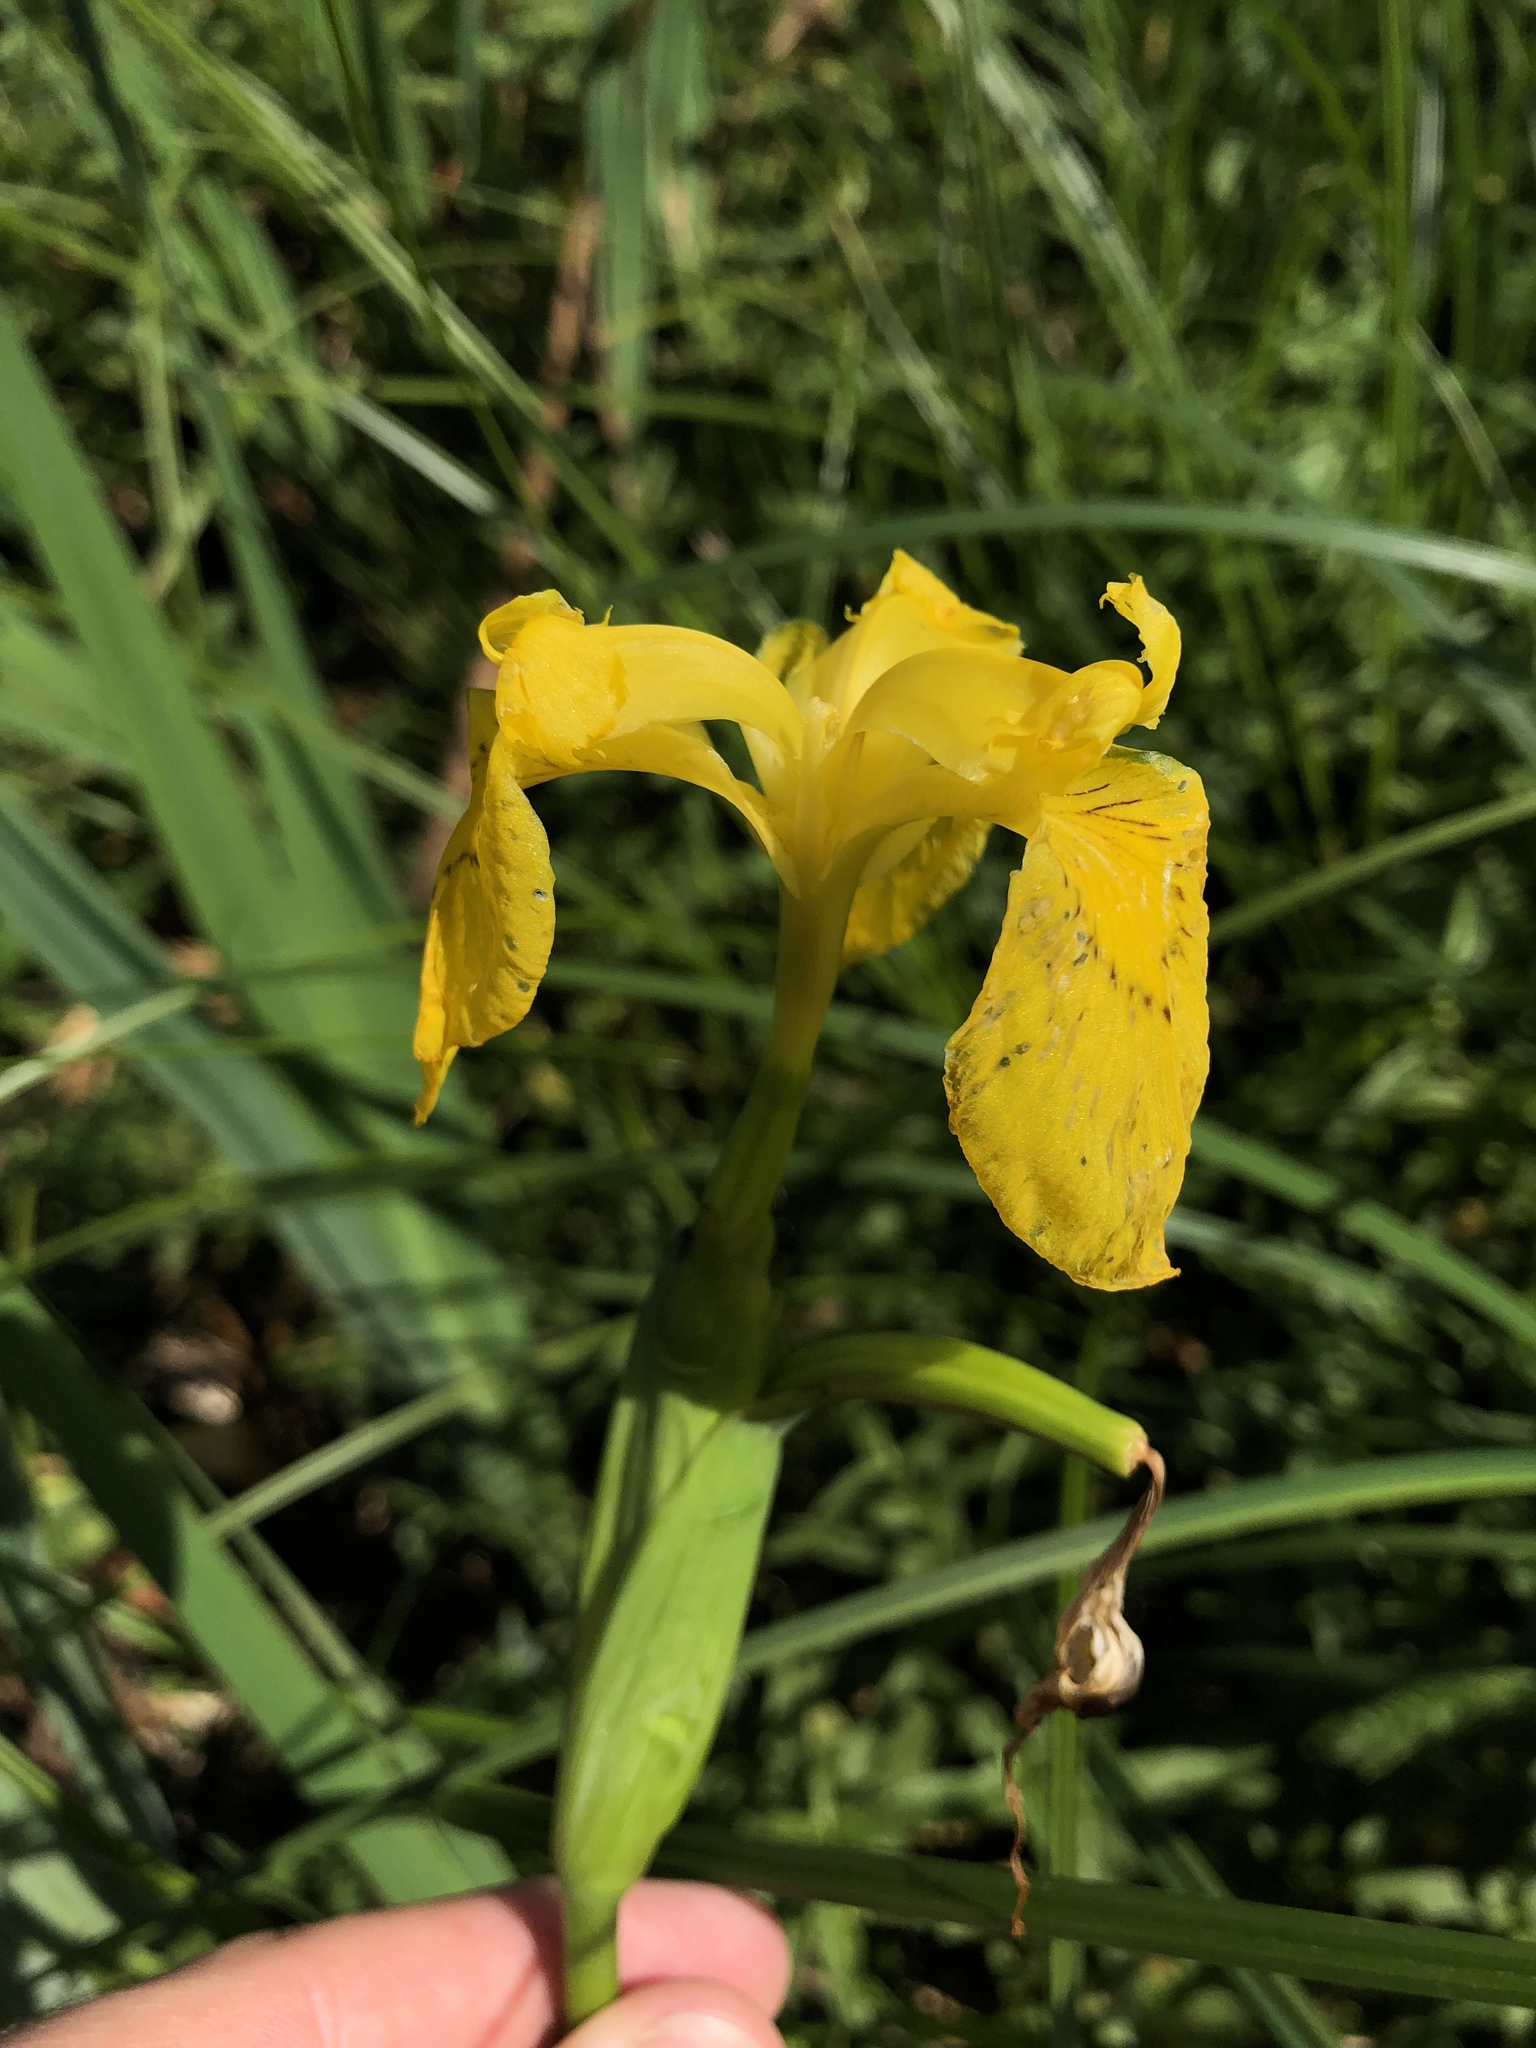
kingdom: Plantae
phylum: Tracheophyta
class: Liliopsida
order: Asparagales
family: Iridaceae
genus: Iris
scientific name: Iris pseudacorus
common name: Yellow flag
